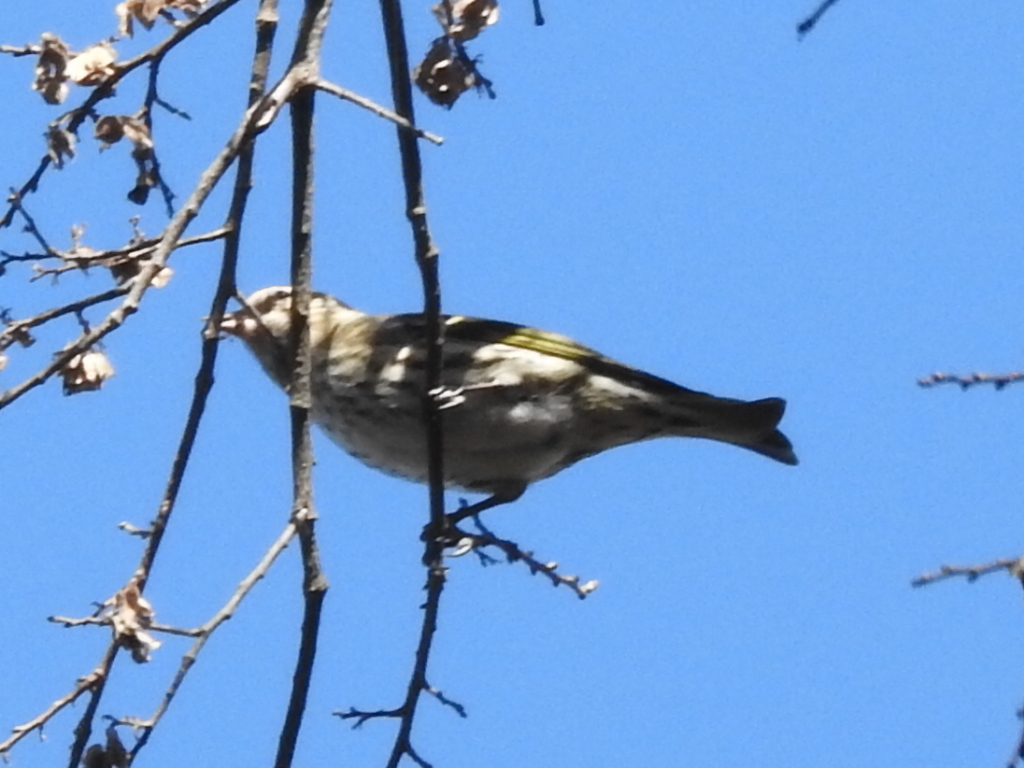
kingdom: Animalia
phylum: Chordata
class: Aves
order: Passeriformes
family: Fringillidae
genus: Spinus
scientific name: Spinus pinus
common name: Pine siskin
